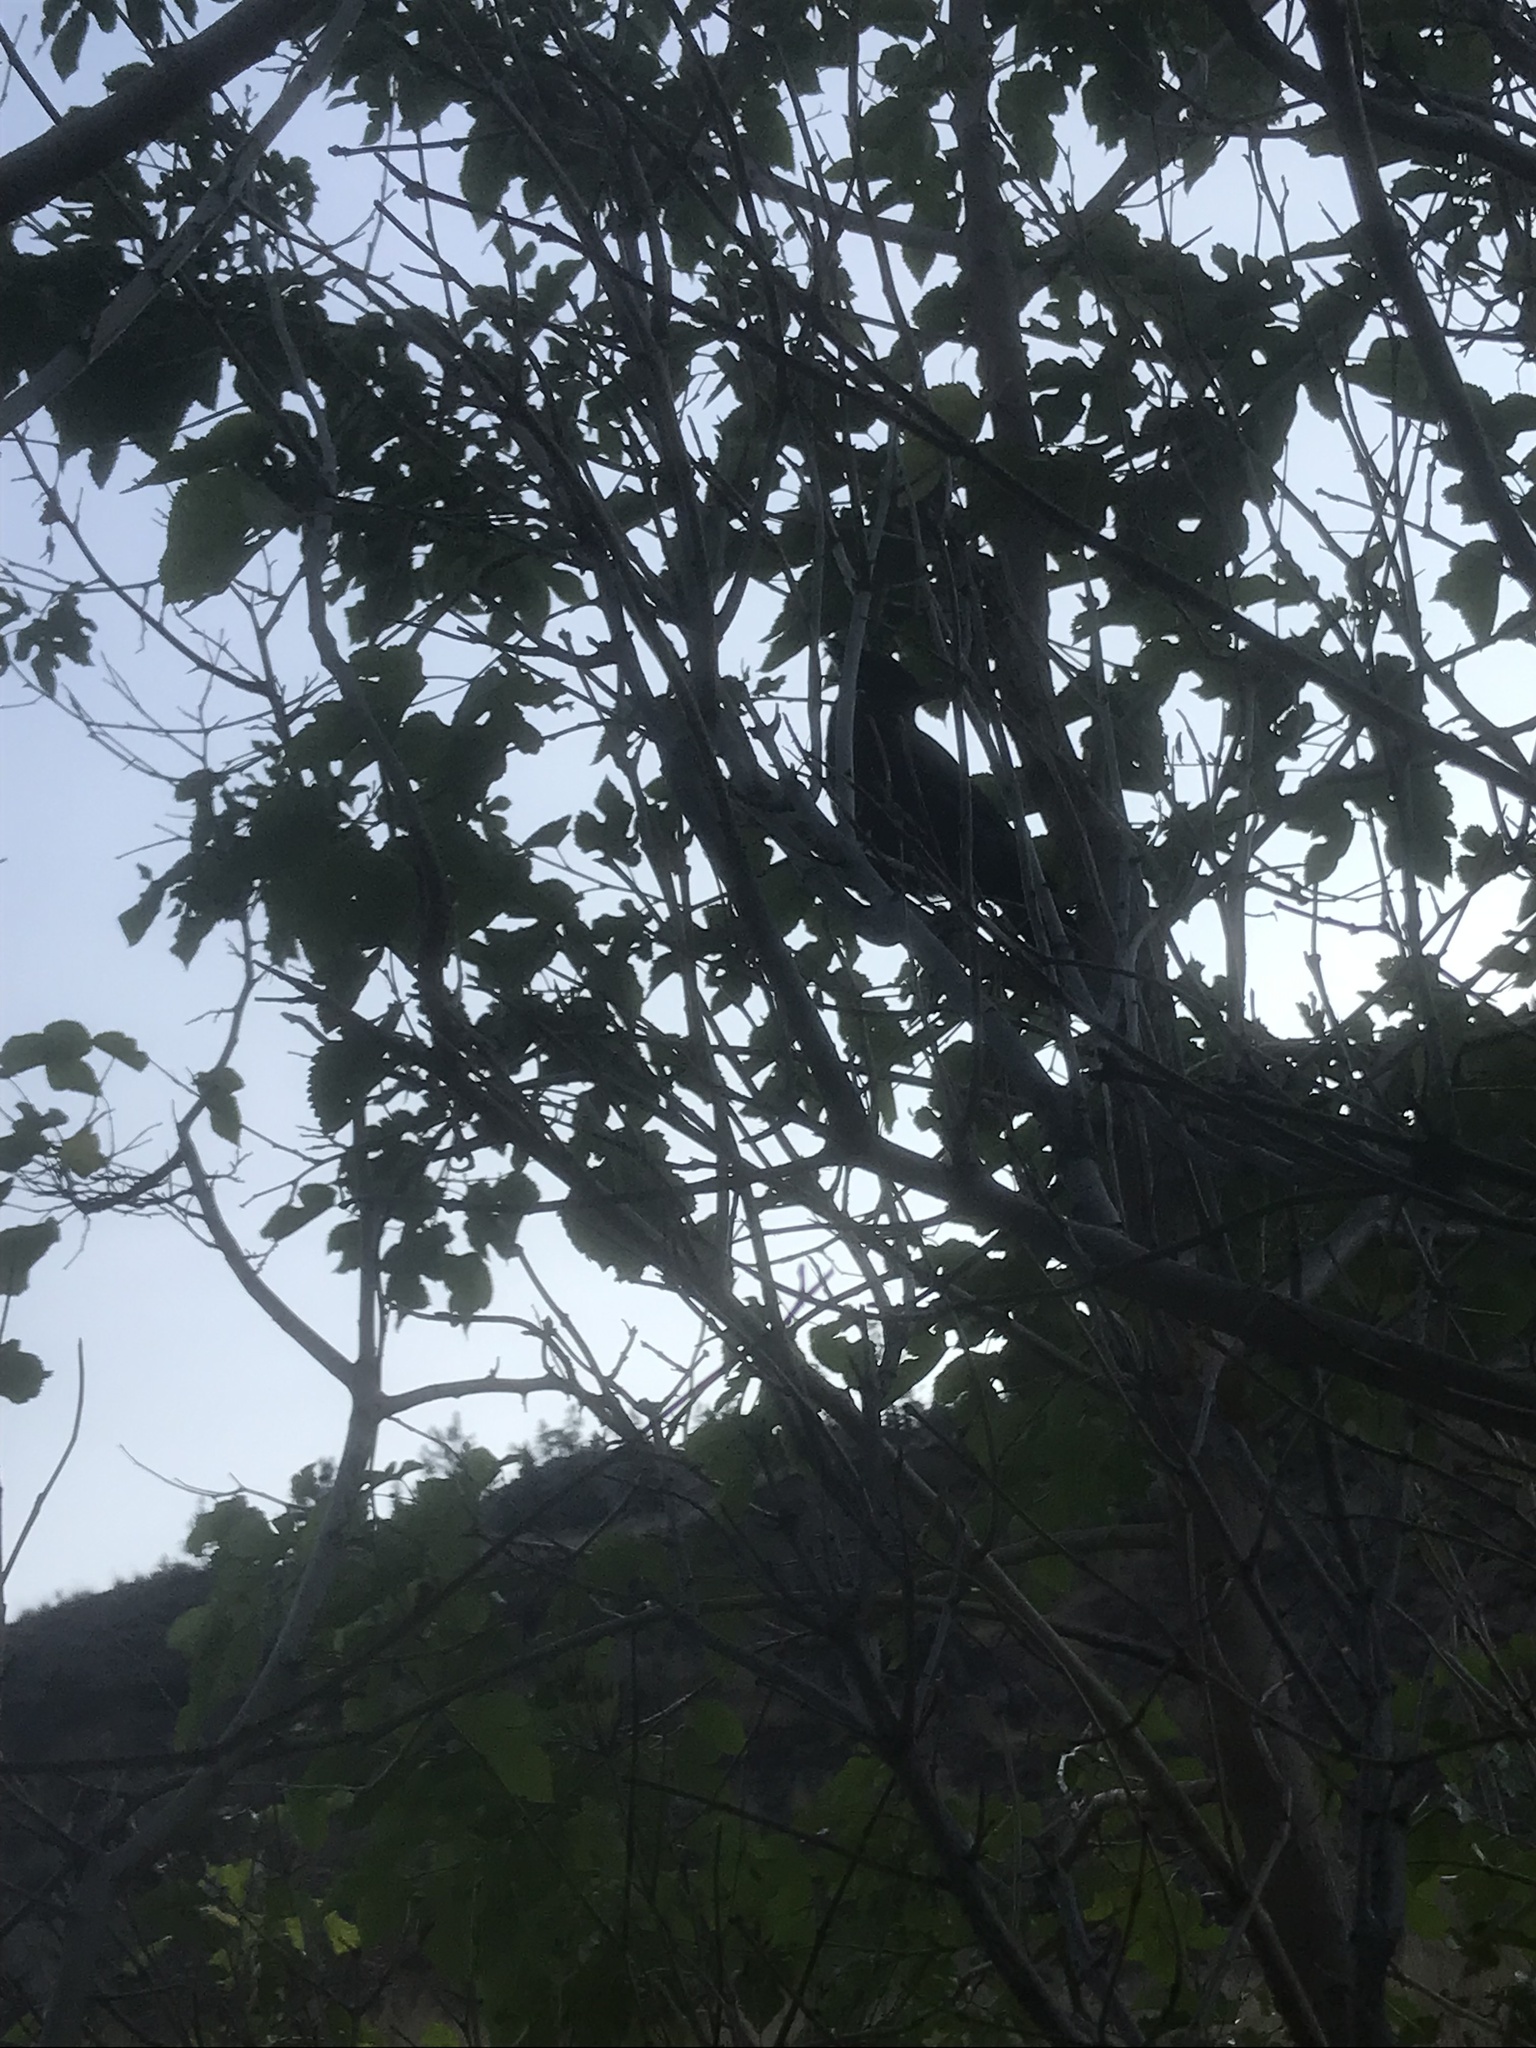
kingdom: Animalia
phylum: Chordata
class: Aves
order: Passeriformes
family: Corvidae
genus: Cyanocitta
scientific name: Cyanocitta stelleri
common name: Steller's jay
